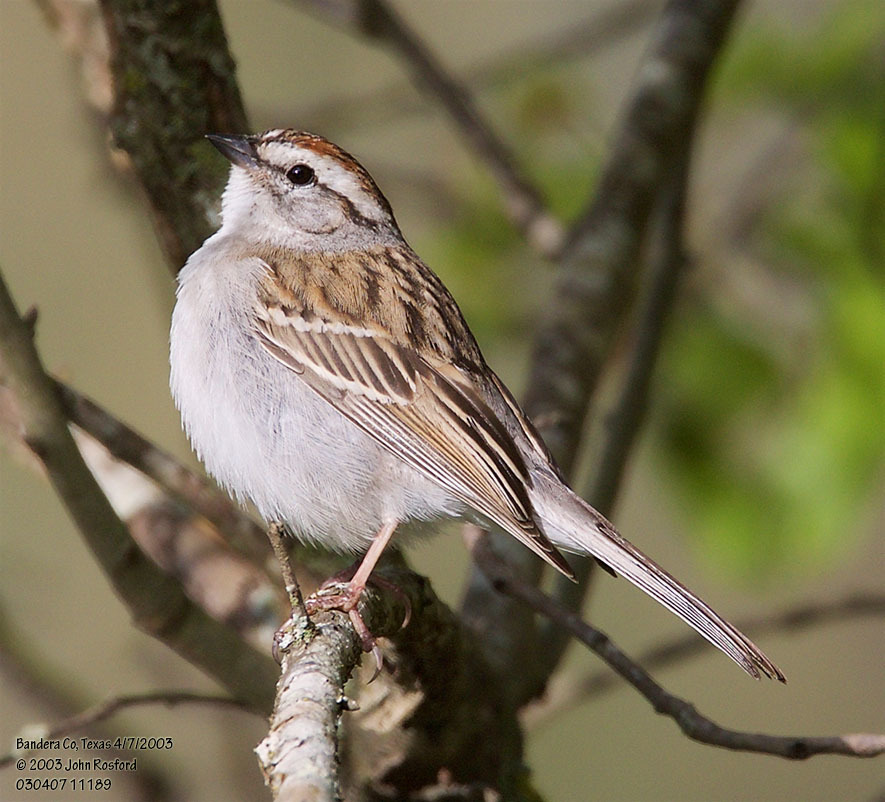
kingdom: Animalia
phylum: Chordata
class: Aves
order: Passeriformes
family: Passerellidae
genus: Spizella
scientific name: Spizella passerina
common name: Chipping sparrow
